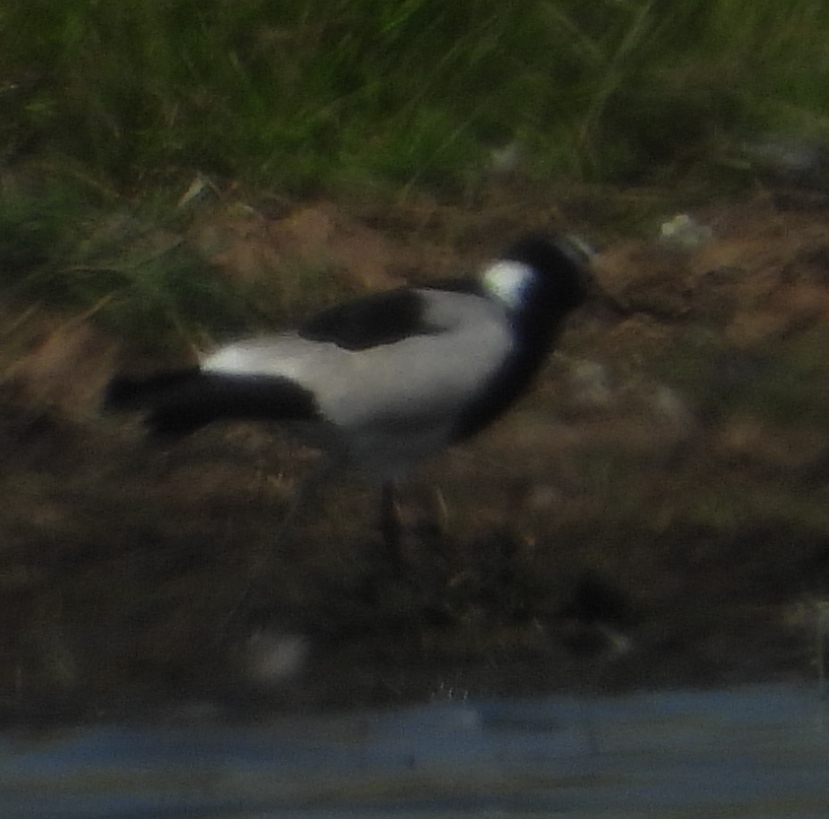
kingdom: Animalia
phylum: Chordata
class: Aves
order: Charadriiformes
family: Charadriidae
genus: Vanellus
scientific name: Vanellus armatus
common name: Blacksmith lapwing
